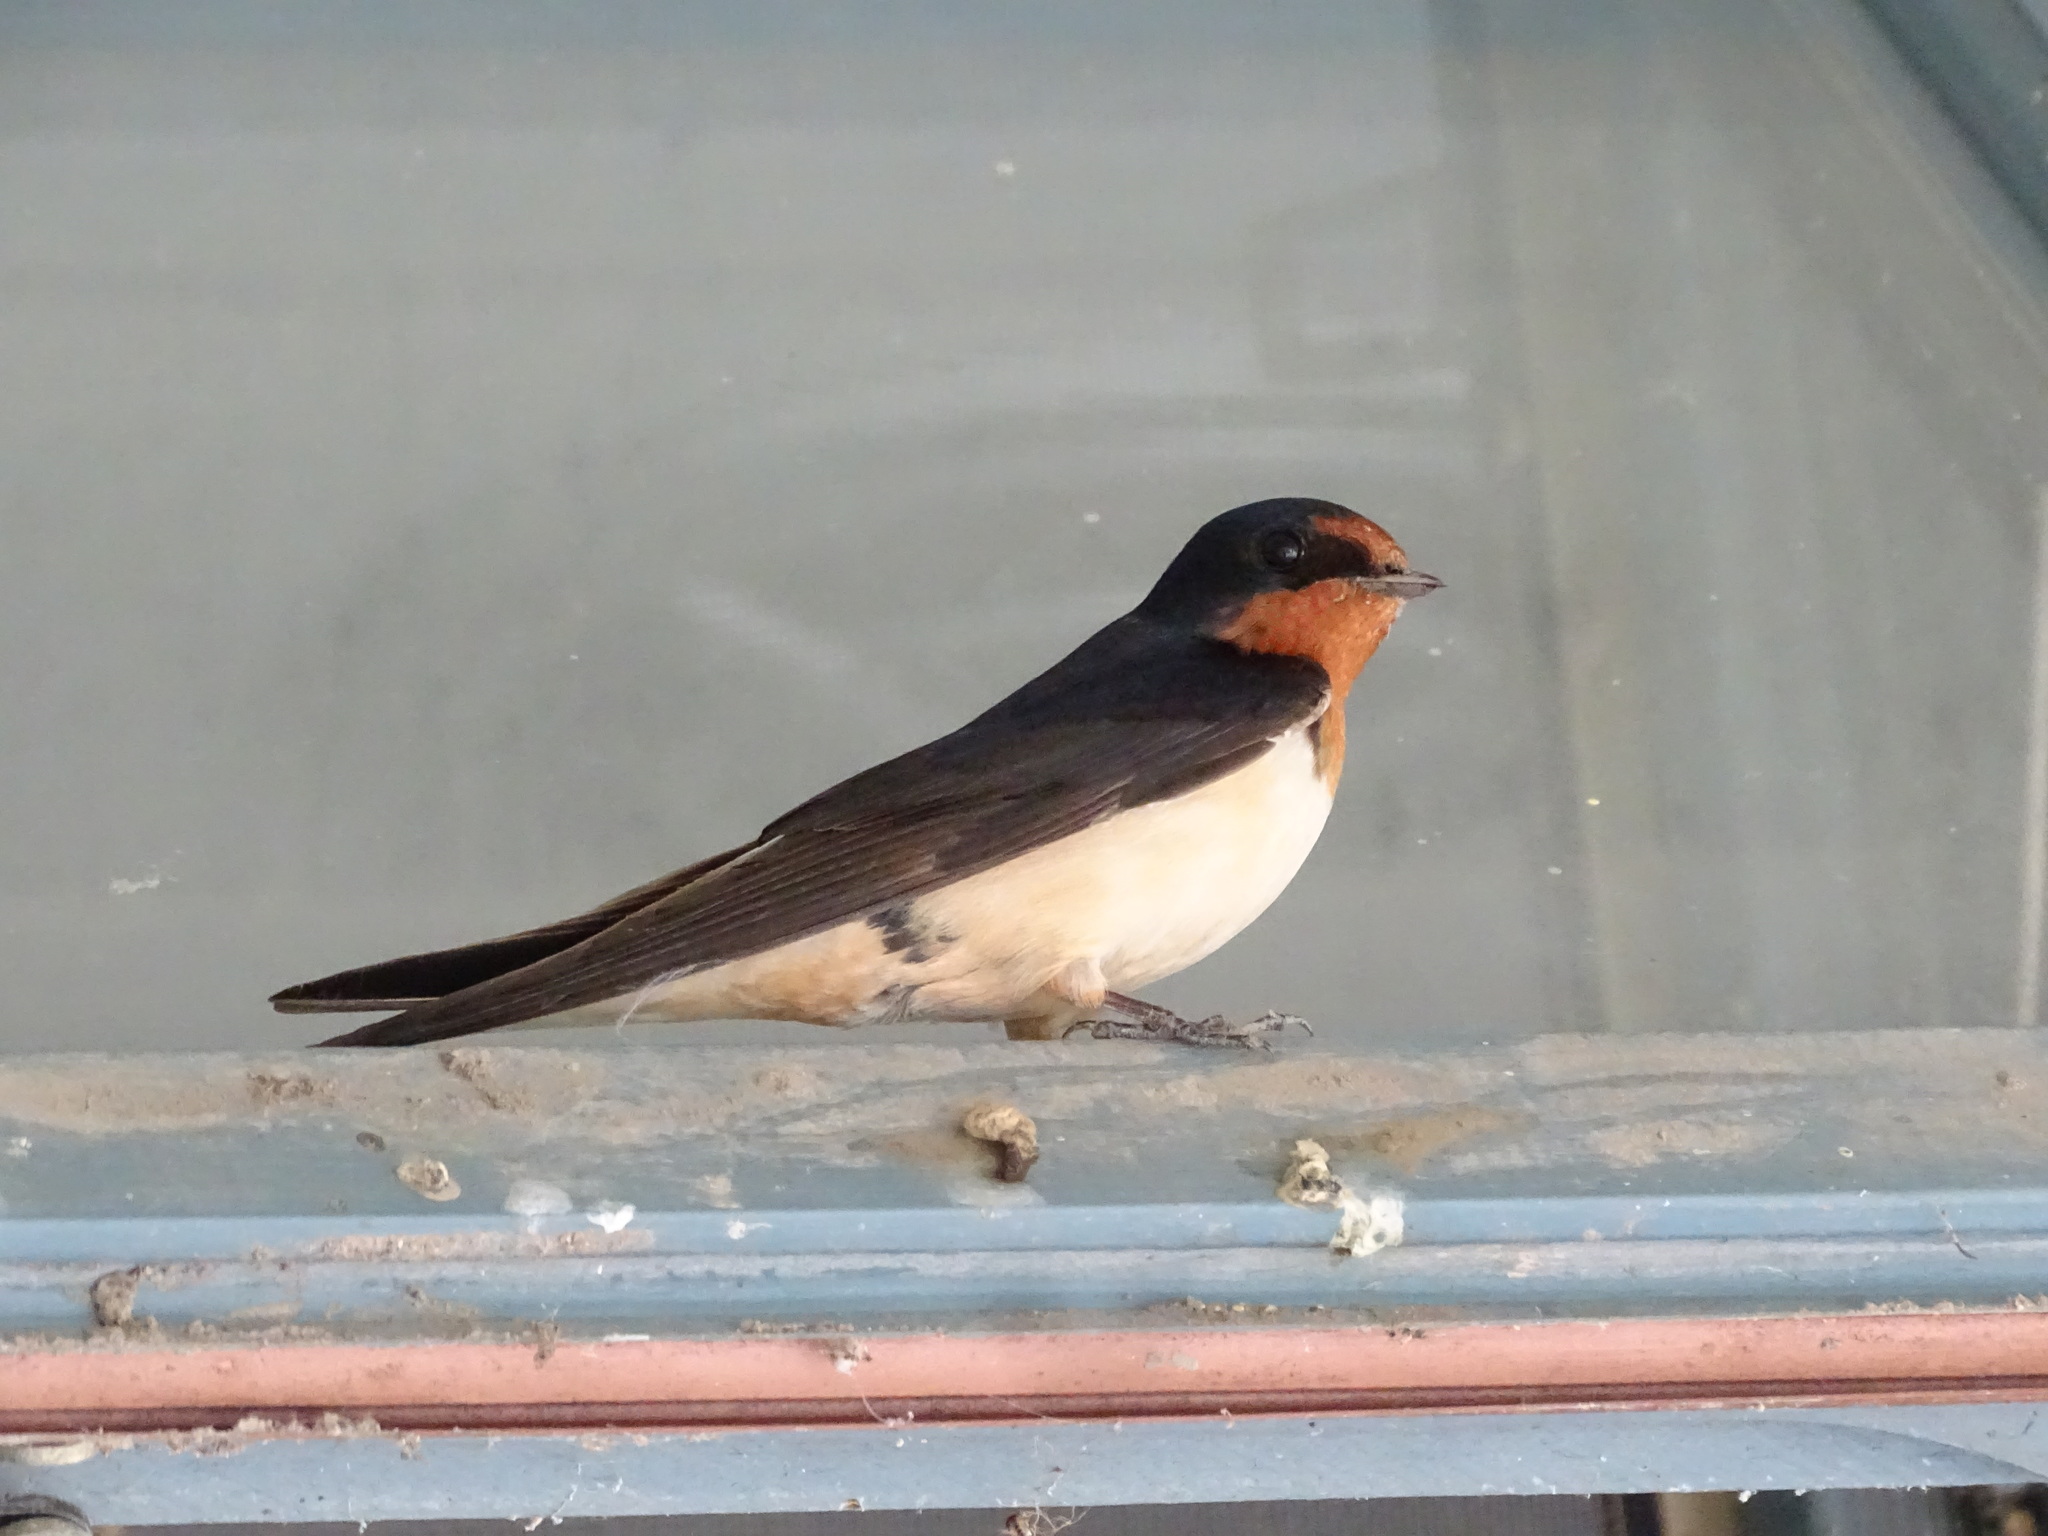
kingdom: Animalia
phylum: Chordata
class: Aves
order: Passeriformes
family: Hirundinidae
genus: Hirundo
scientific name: Hirundo rustica
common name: Barn swallow
